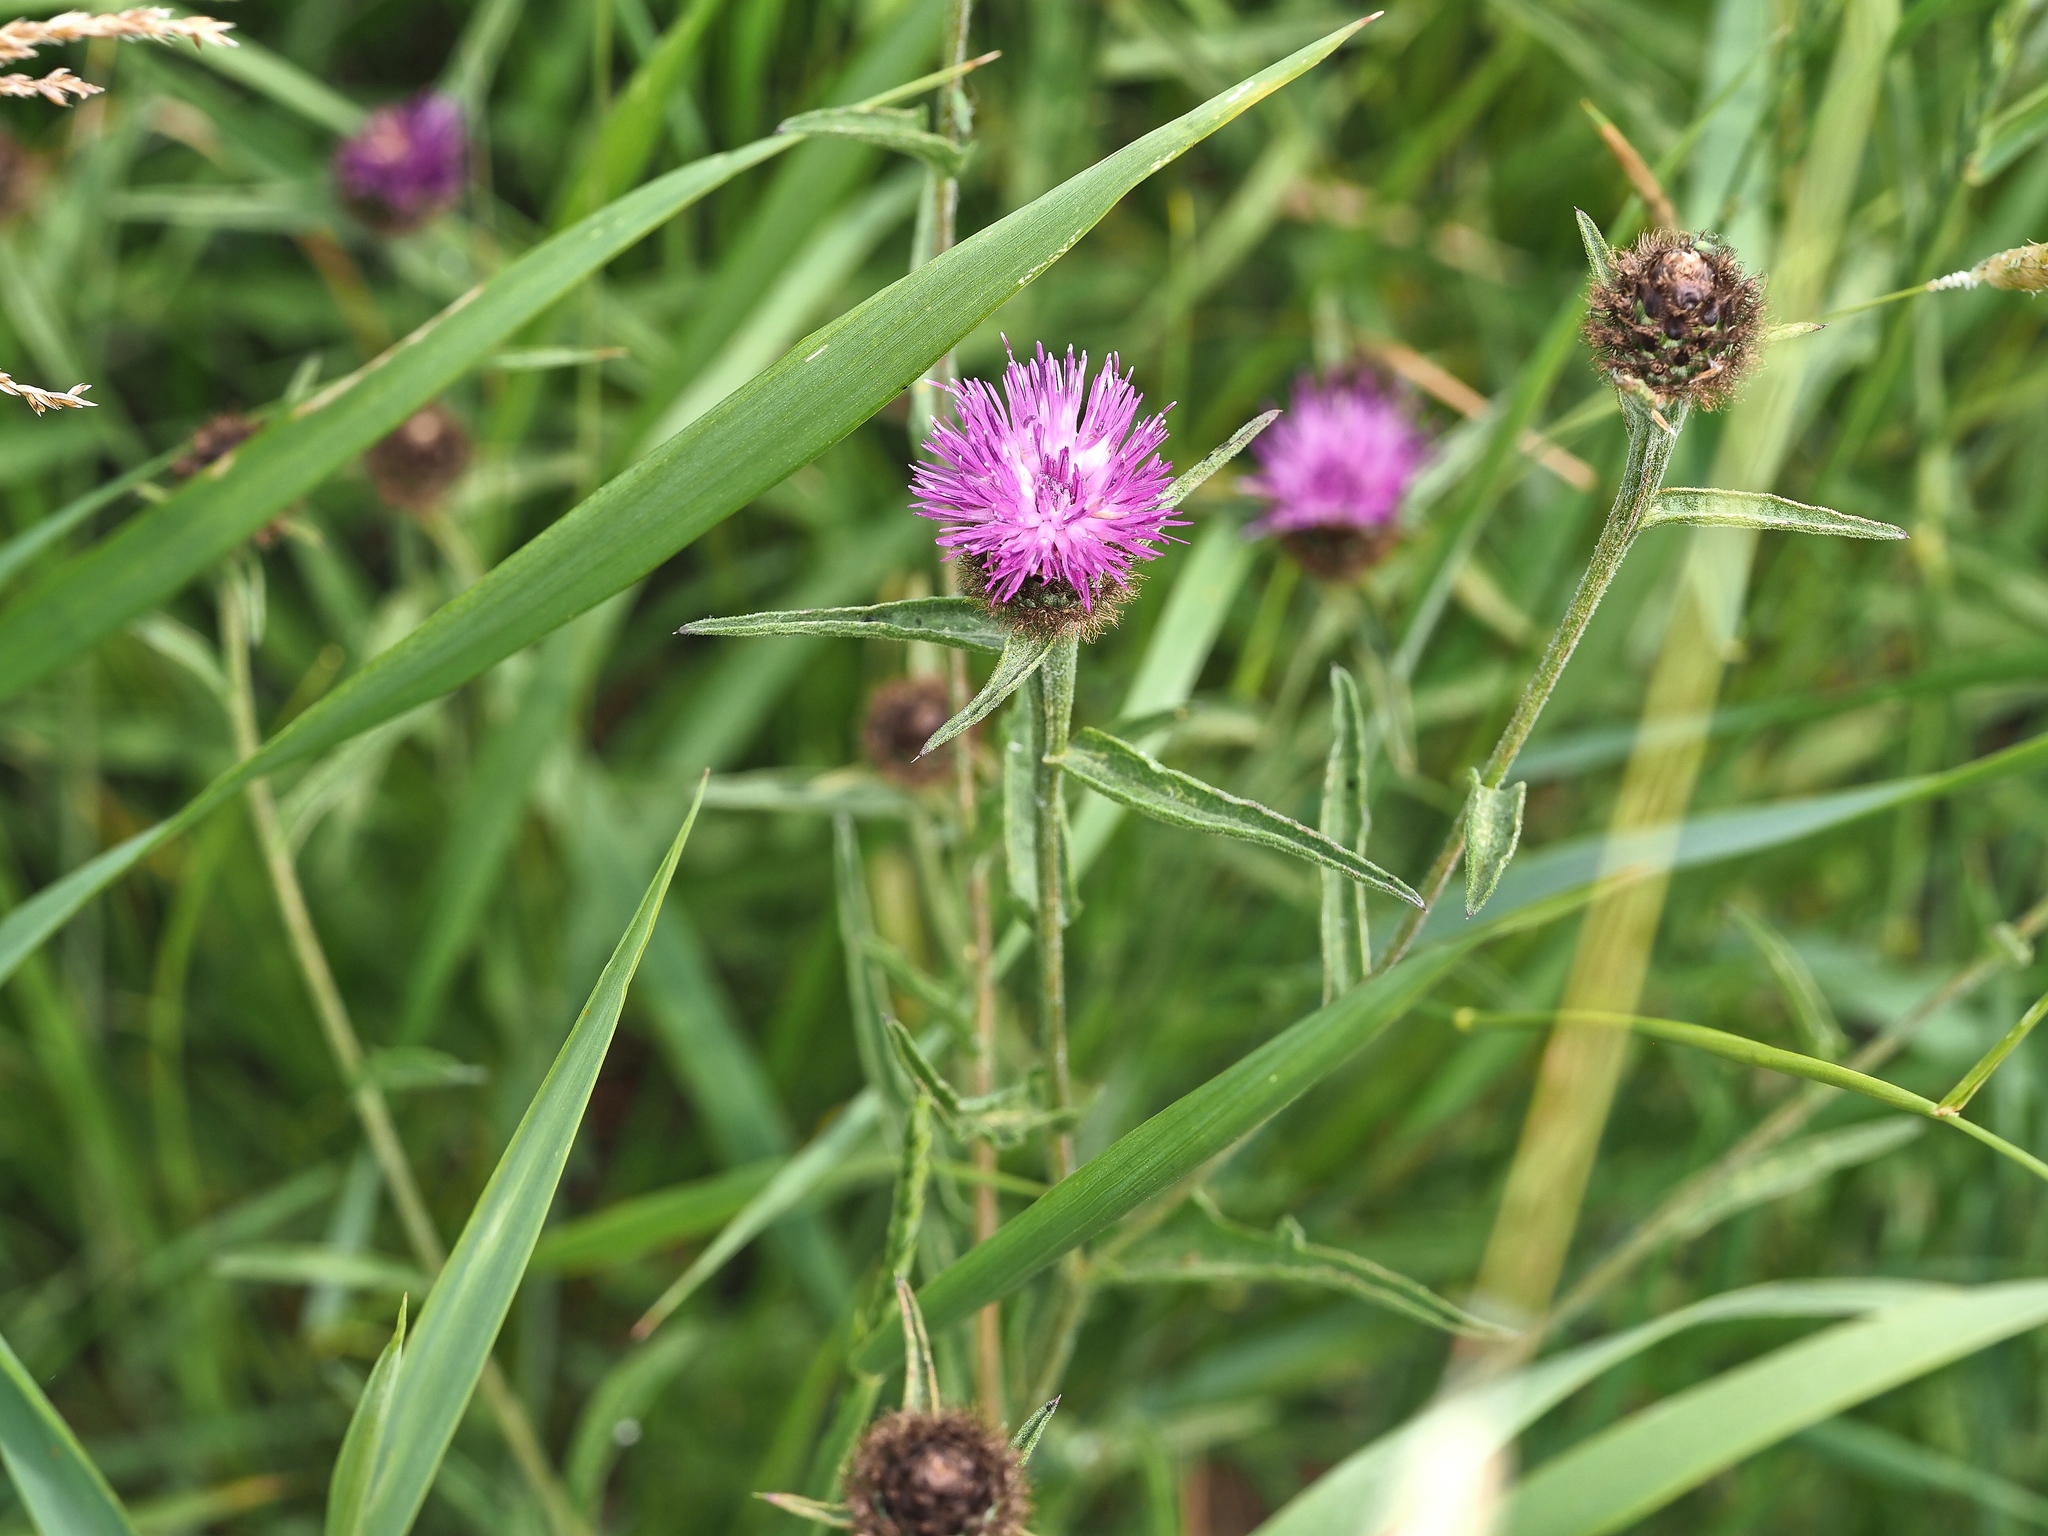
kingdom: Plantae
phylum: Tracheophyta
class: Magnoliopsida
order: Asterales
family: Asteraceae
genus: Centaurea
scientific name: Centaurea nigra
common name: Lesser knapweed
